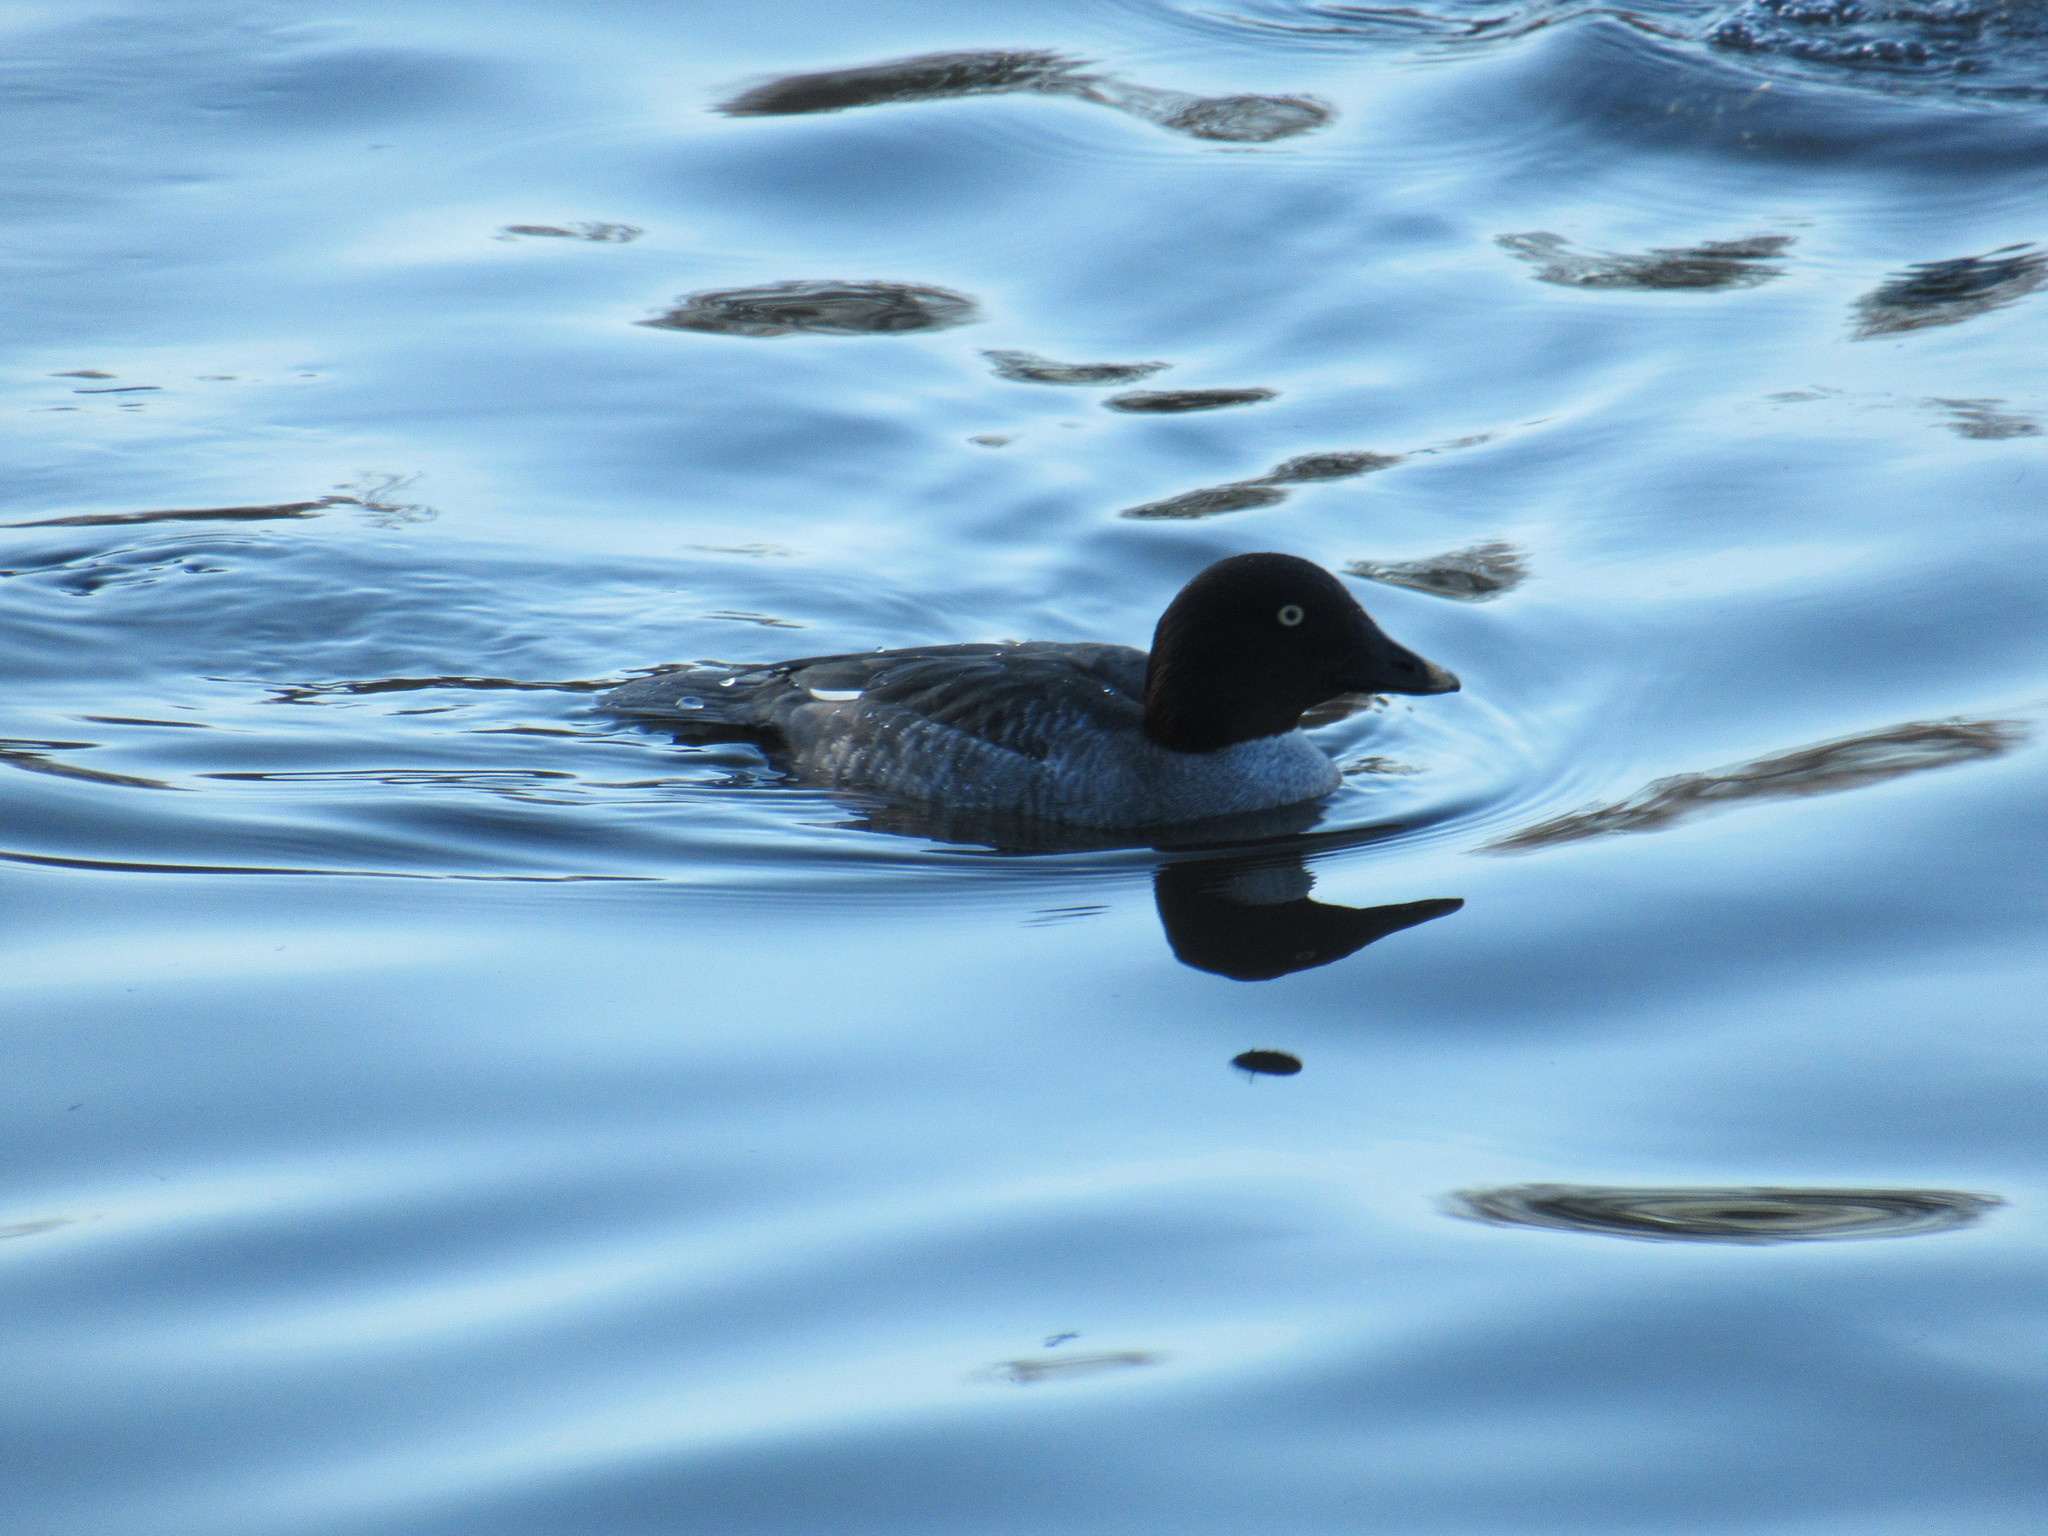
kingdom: Animalia
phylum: Chordata
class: Aves
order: Anseriformes
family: Anatidae
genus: Bucephala
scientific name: Bucephala clangula
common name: Common goldeneye
